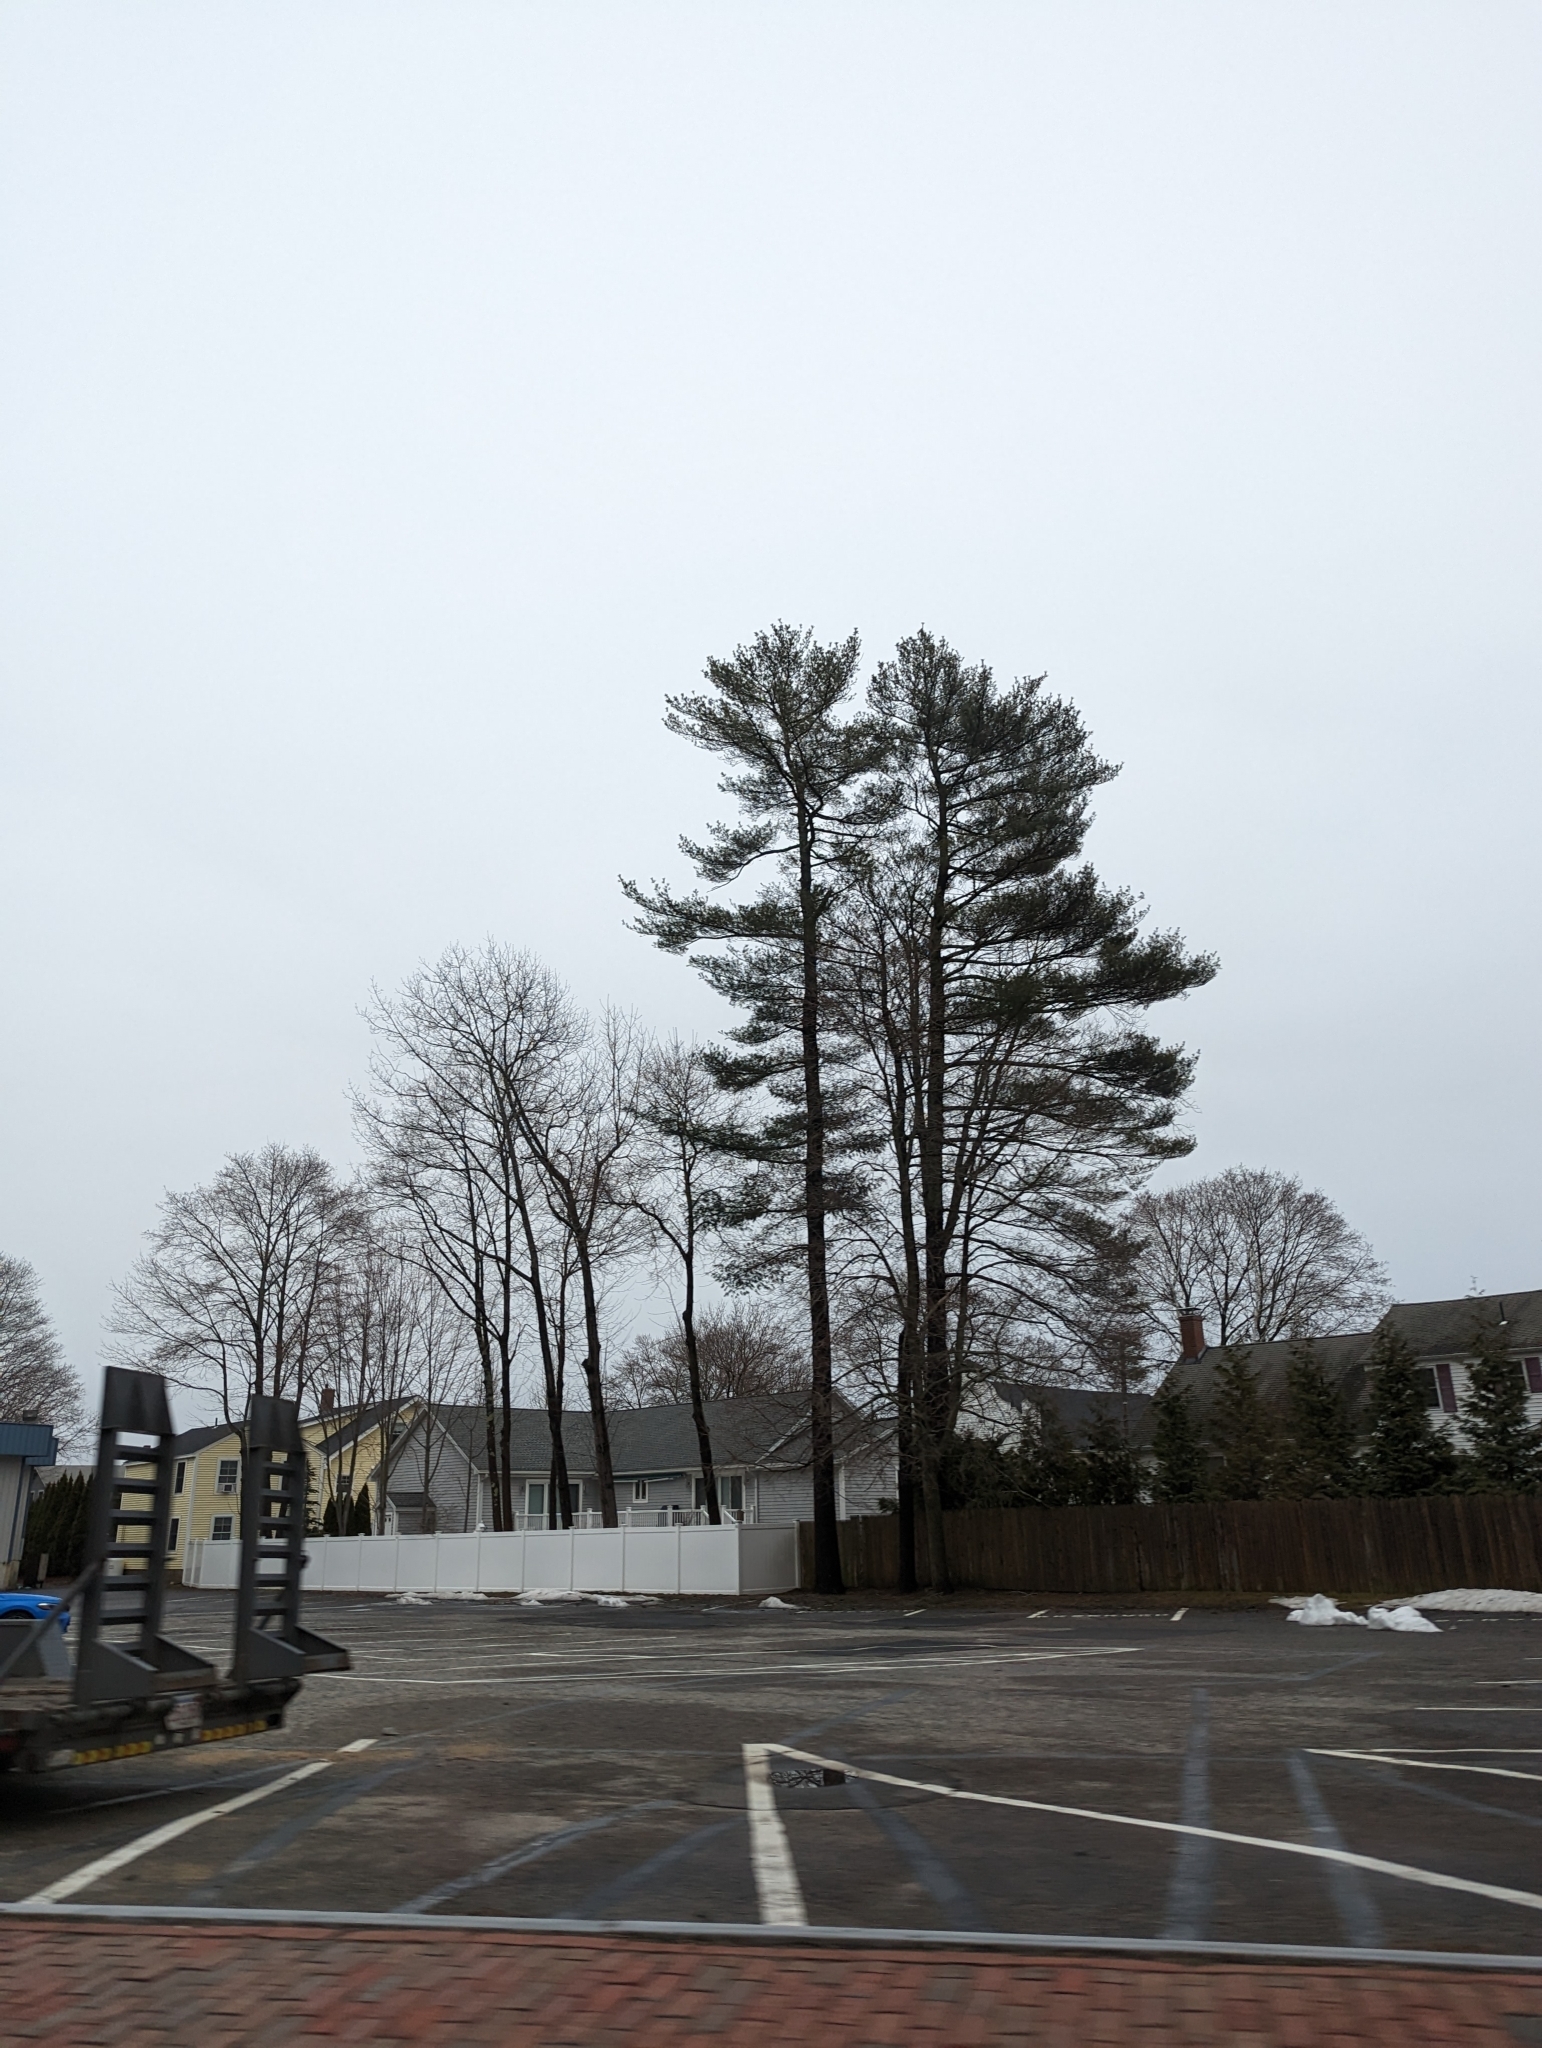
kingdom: Plantae
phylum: Tracheophyta
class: Pinopsida
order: Pinales
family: Pinaceae
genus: Pinus
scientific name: Pinus strobus
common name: Weymouth pine
